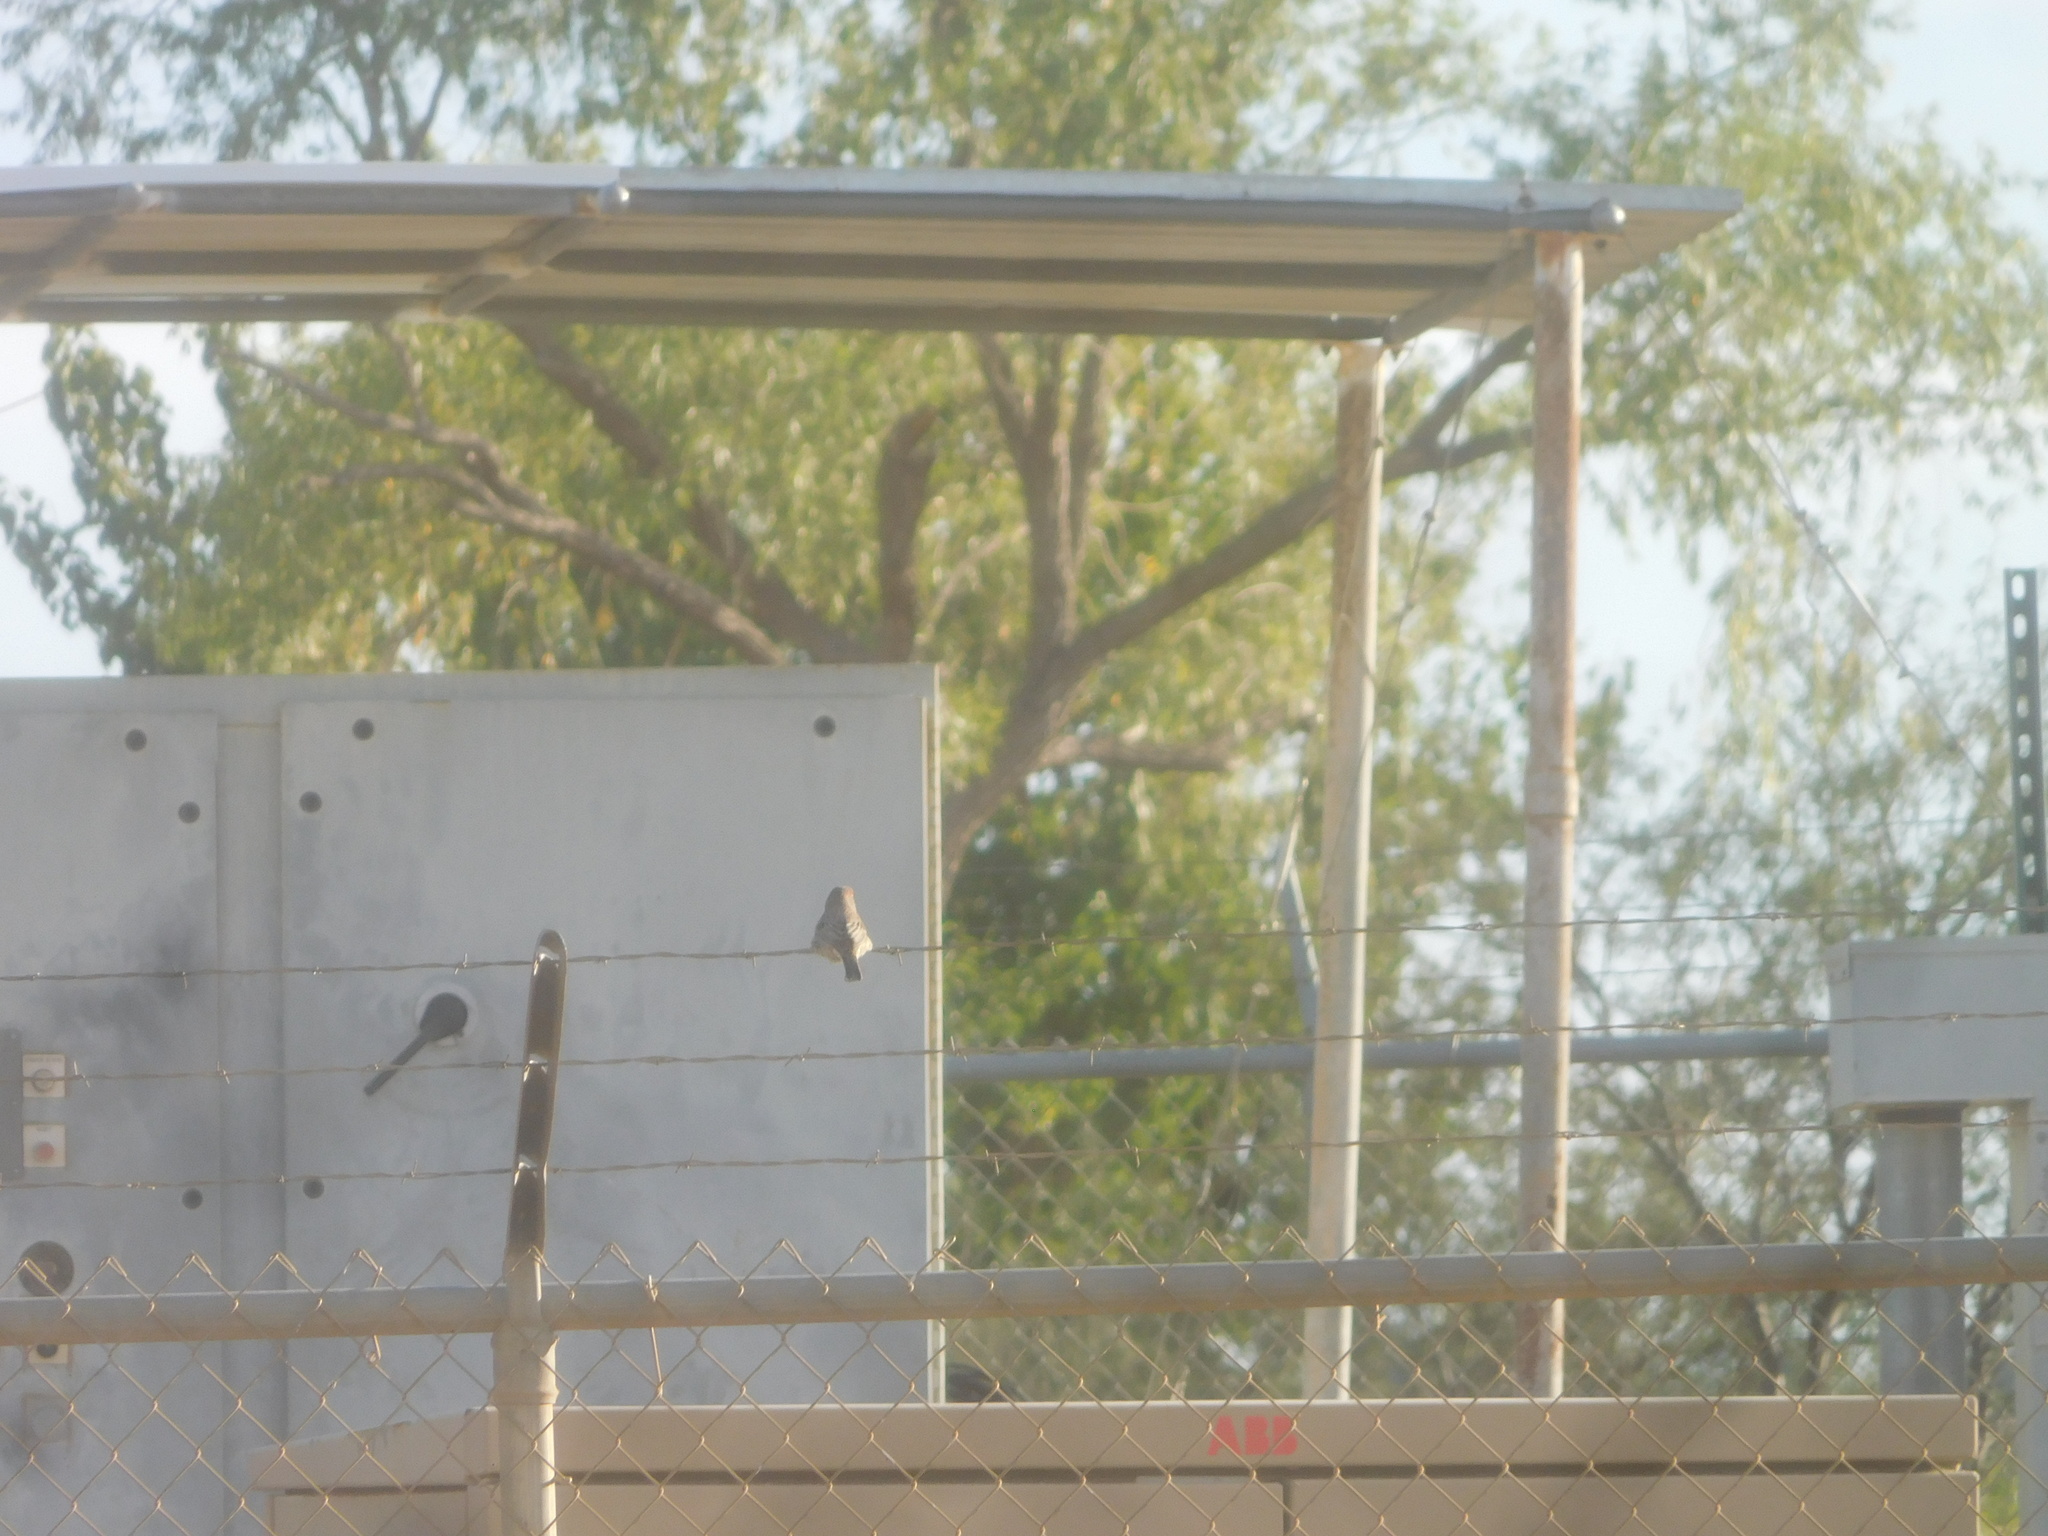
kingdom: Animalia
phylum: Chordata
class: Aves
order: Passeriformes
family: Tyrannidae
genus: Sayornis
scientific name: Sayornis saya
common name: Say's phoebe
